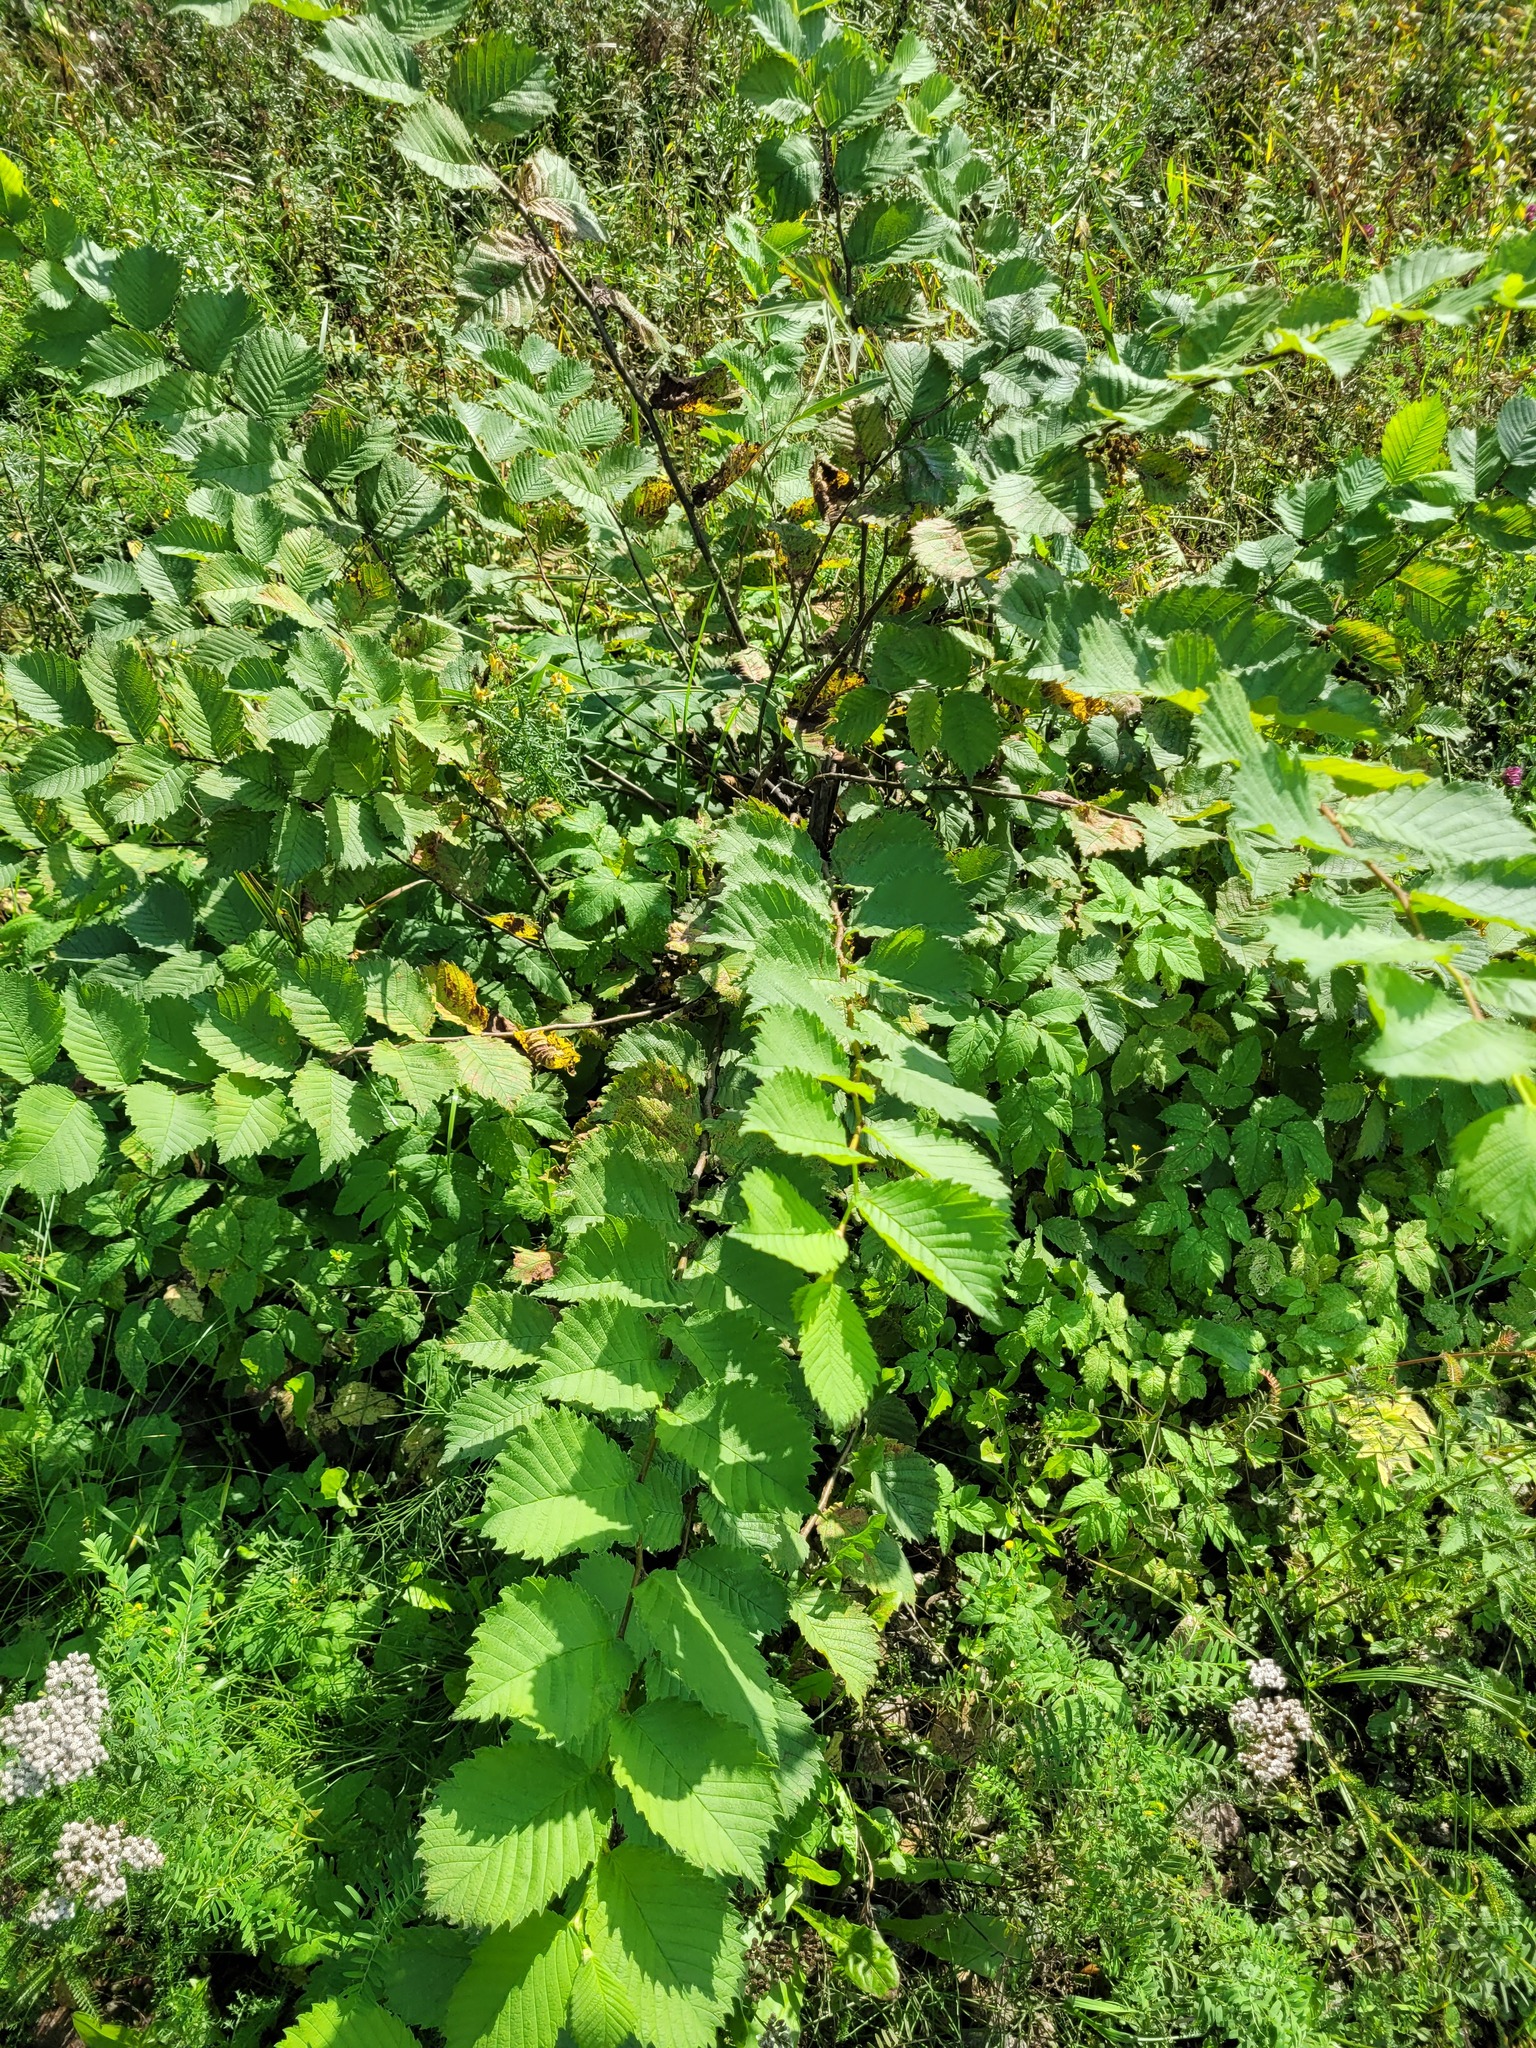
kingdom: Plantae
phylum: Tracheophyta
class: Magnoliopsida
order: Rosales
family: Ulmaceae
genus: Ulmus
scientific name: Ulmus laevis
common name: European white-elm
